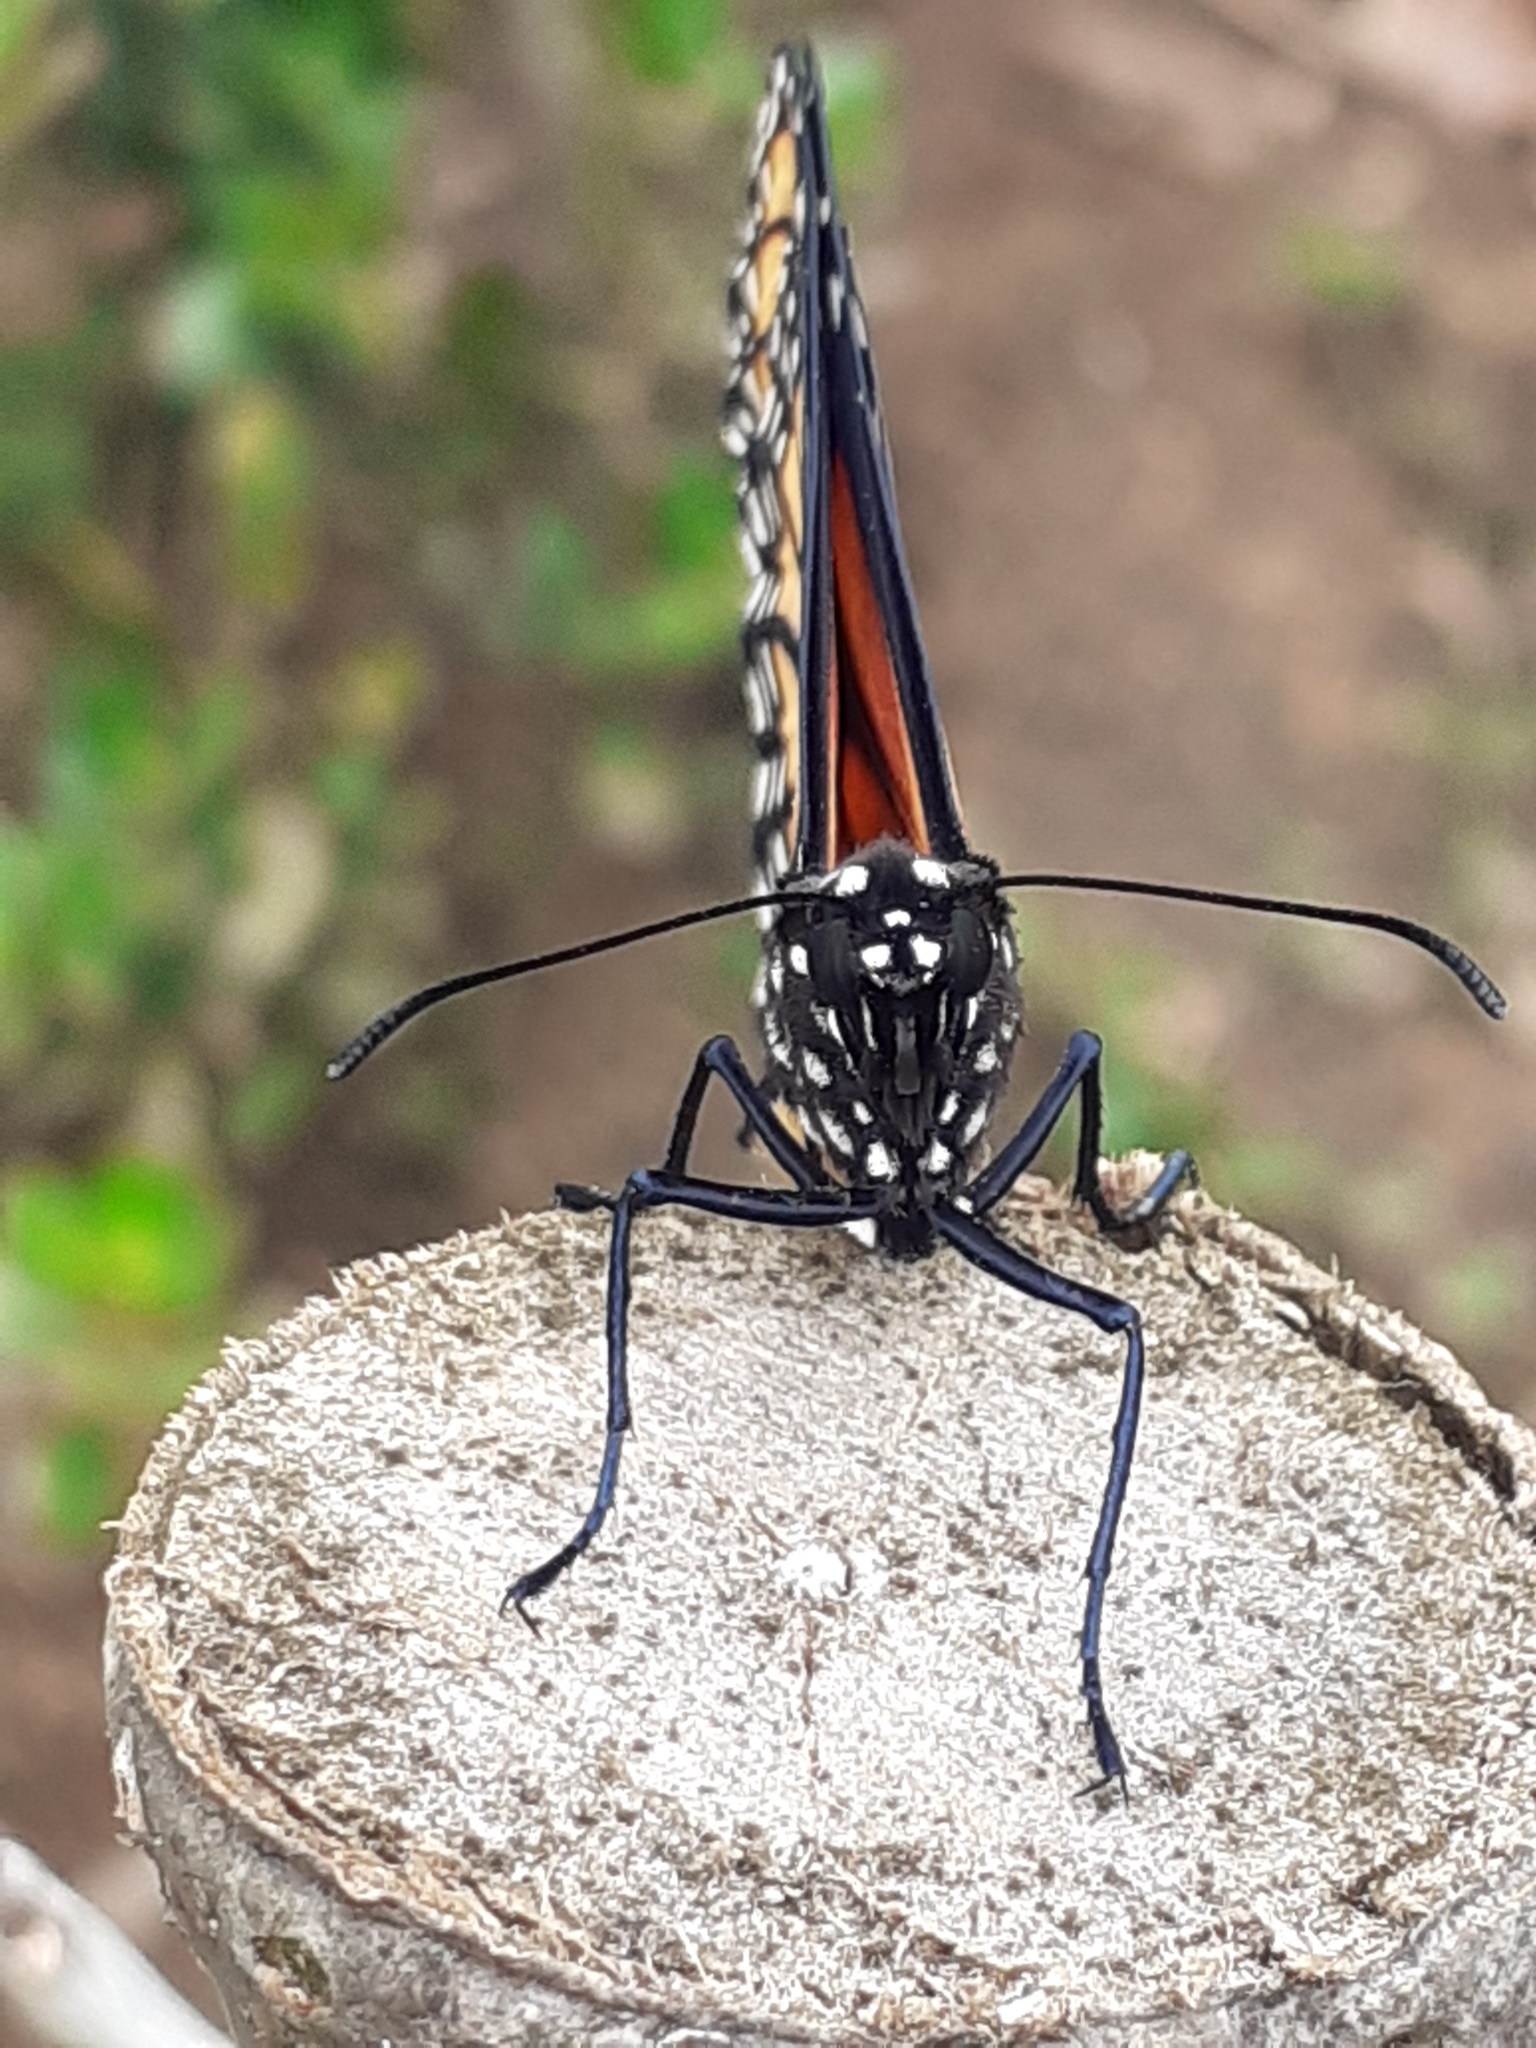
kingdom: Animalia
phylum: Arthropoda
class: Insecta
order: Lepidoptera
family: Nymphalidae
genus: Danaus
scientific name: Danaus plexippus
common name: Monarch
